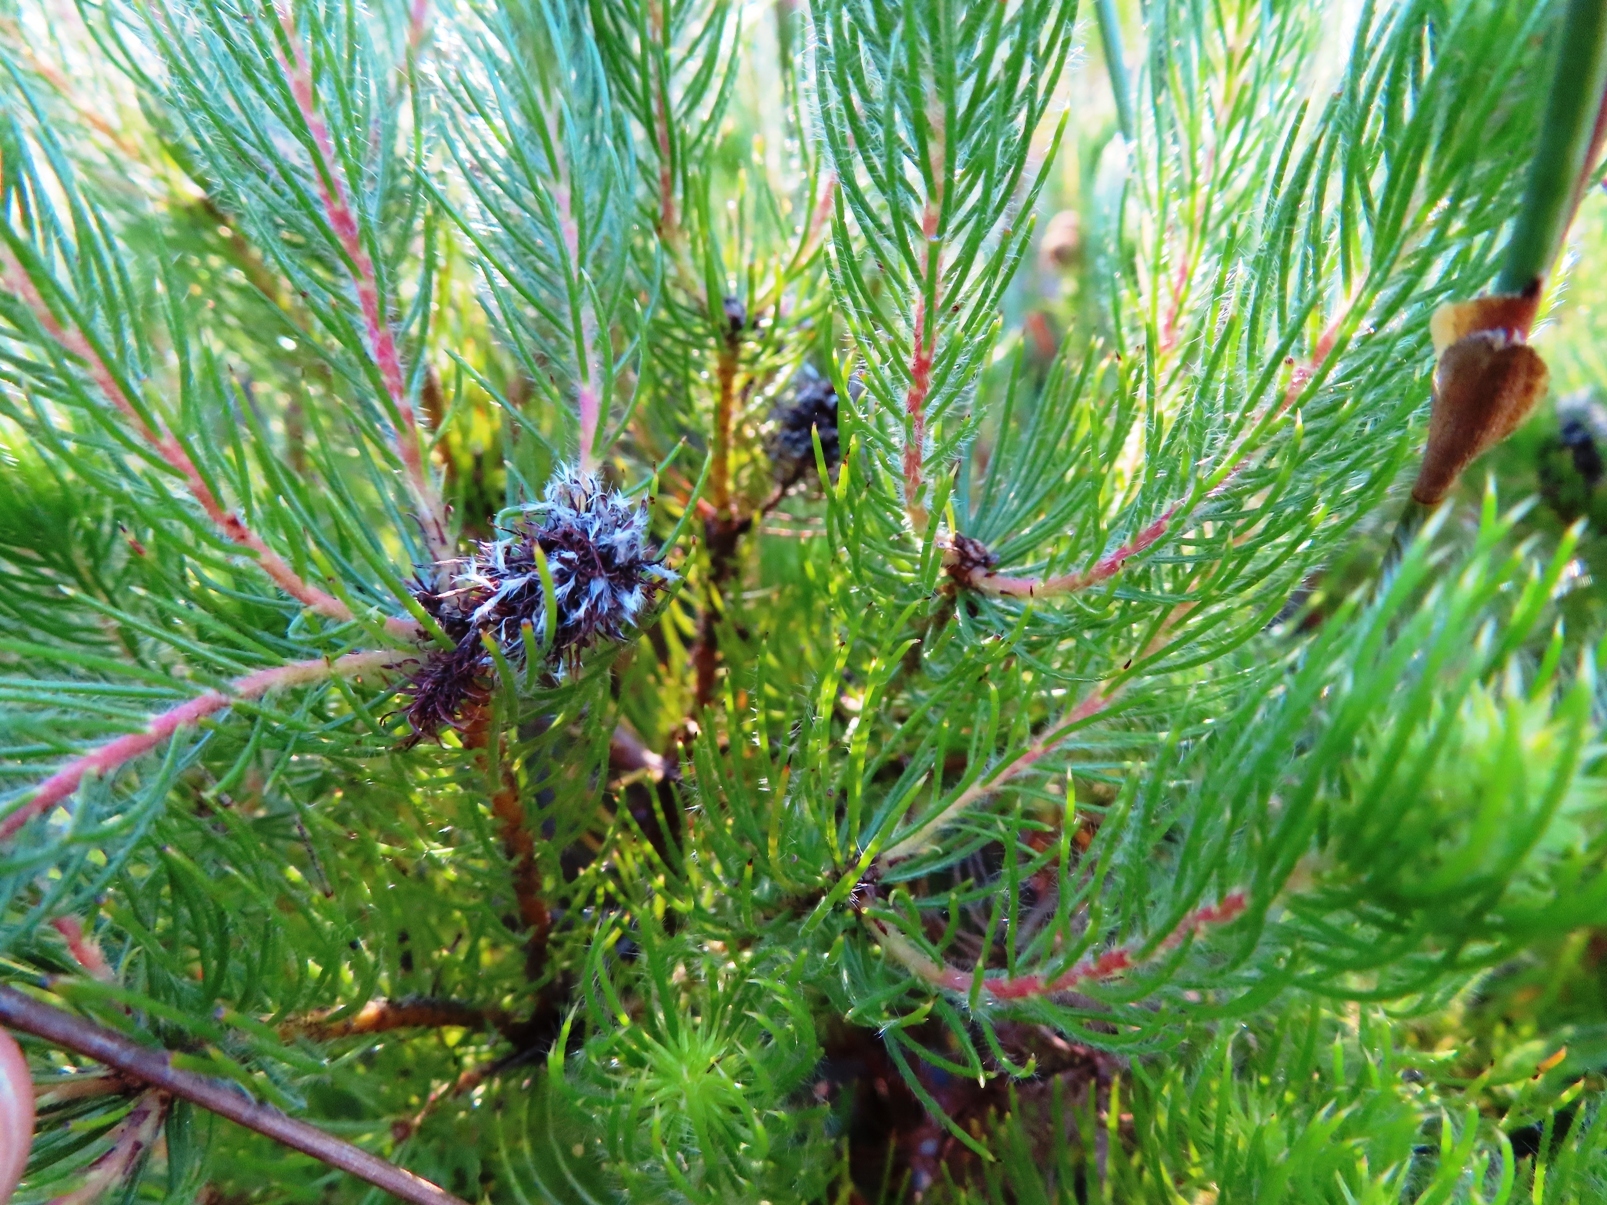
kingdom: Plantae
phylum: Tracheophyta
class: Magnoliopsida
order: Proteales
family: Proteaceae
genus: Spatalla
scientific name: Spatalla setacea
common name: Needle-leaf spoon
